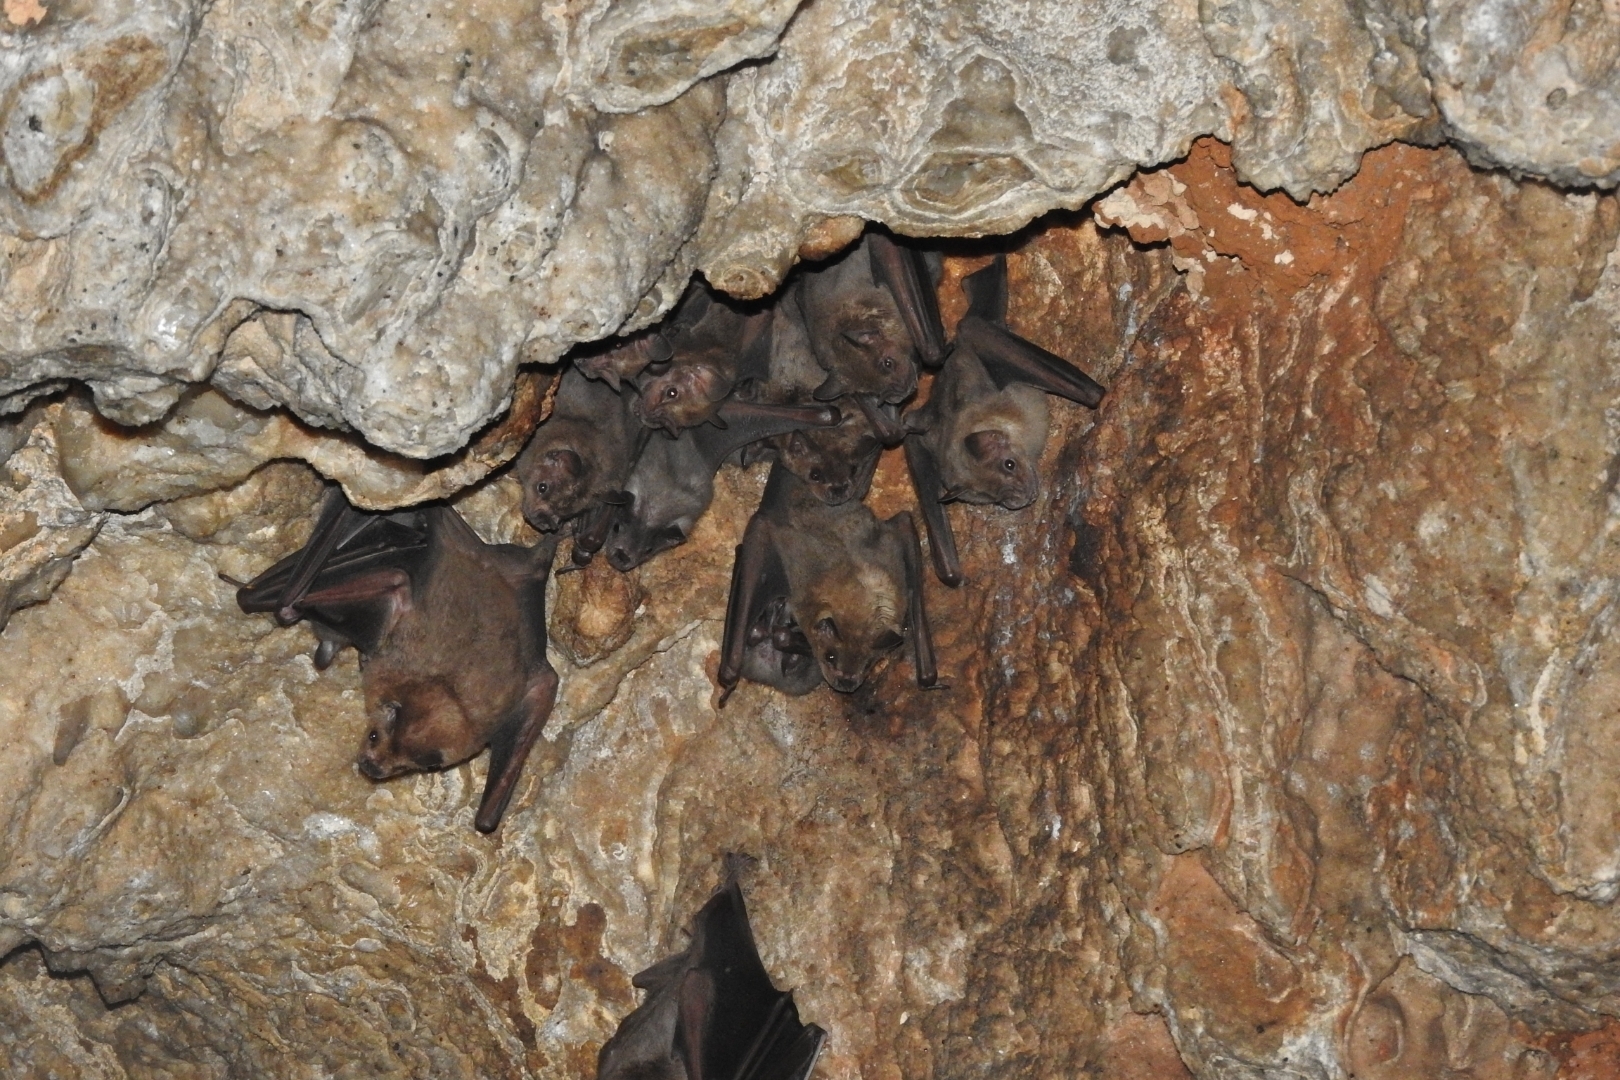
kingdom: Animalia
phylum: Chordata
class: Mammalia
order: Chiroptera
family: Phyllostomidae
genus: Artibeus
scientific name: Artibeus jamaicensis
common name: Jamaican fruit-eating bat
